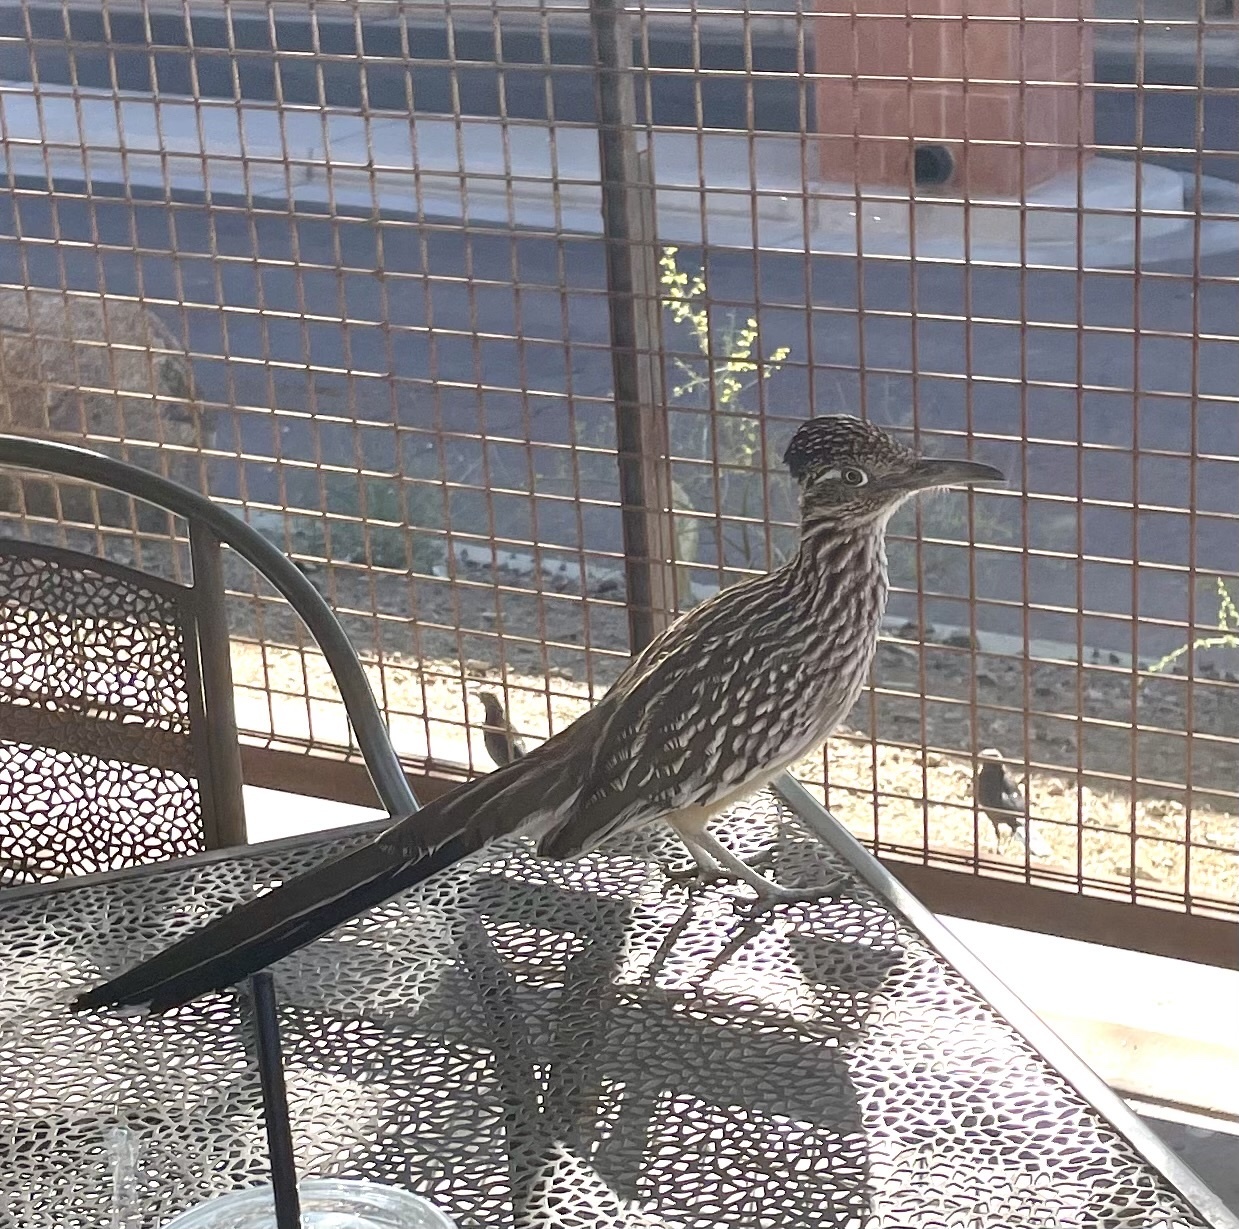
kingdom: Animalia
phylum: Chordata
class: Aves
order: Cuculiformes
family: Cuculidae
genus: Geococcyx
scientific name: Geococcyx californianus
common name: Greater roadrunner
